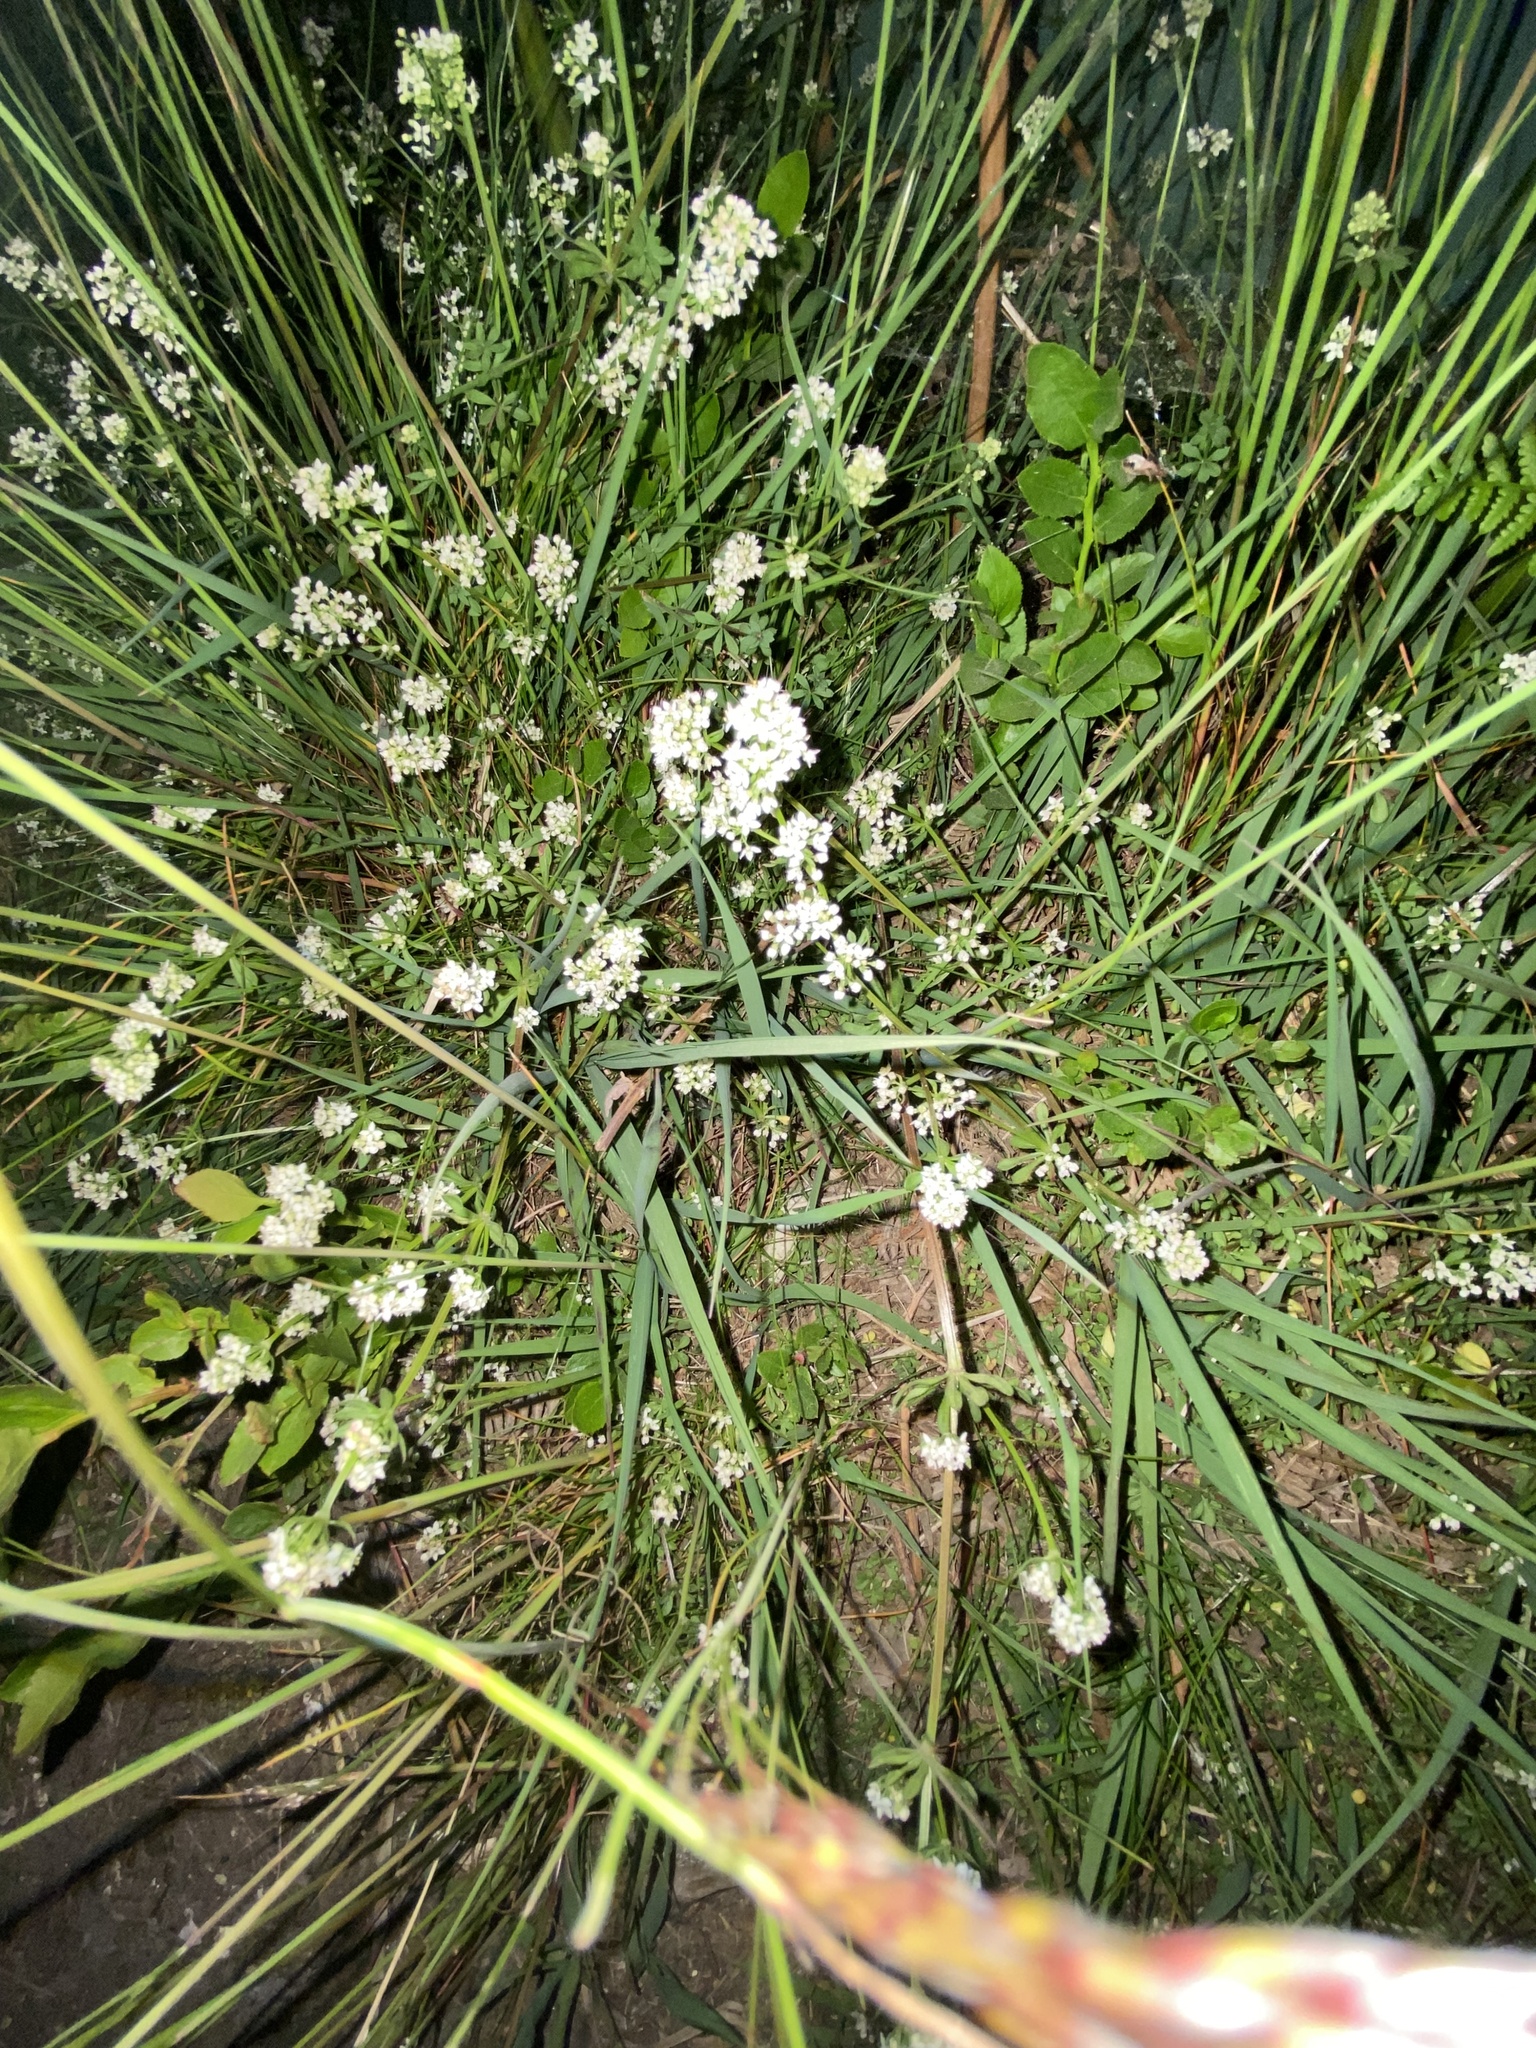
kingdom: Plantae
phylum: Tracheophyta
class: Magnoliopsida
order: Gentianales
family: Rubiaceae
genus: Galium
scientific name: Galium saxatile
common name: Heath bedstraw
